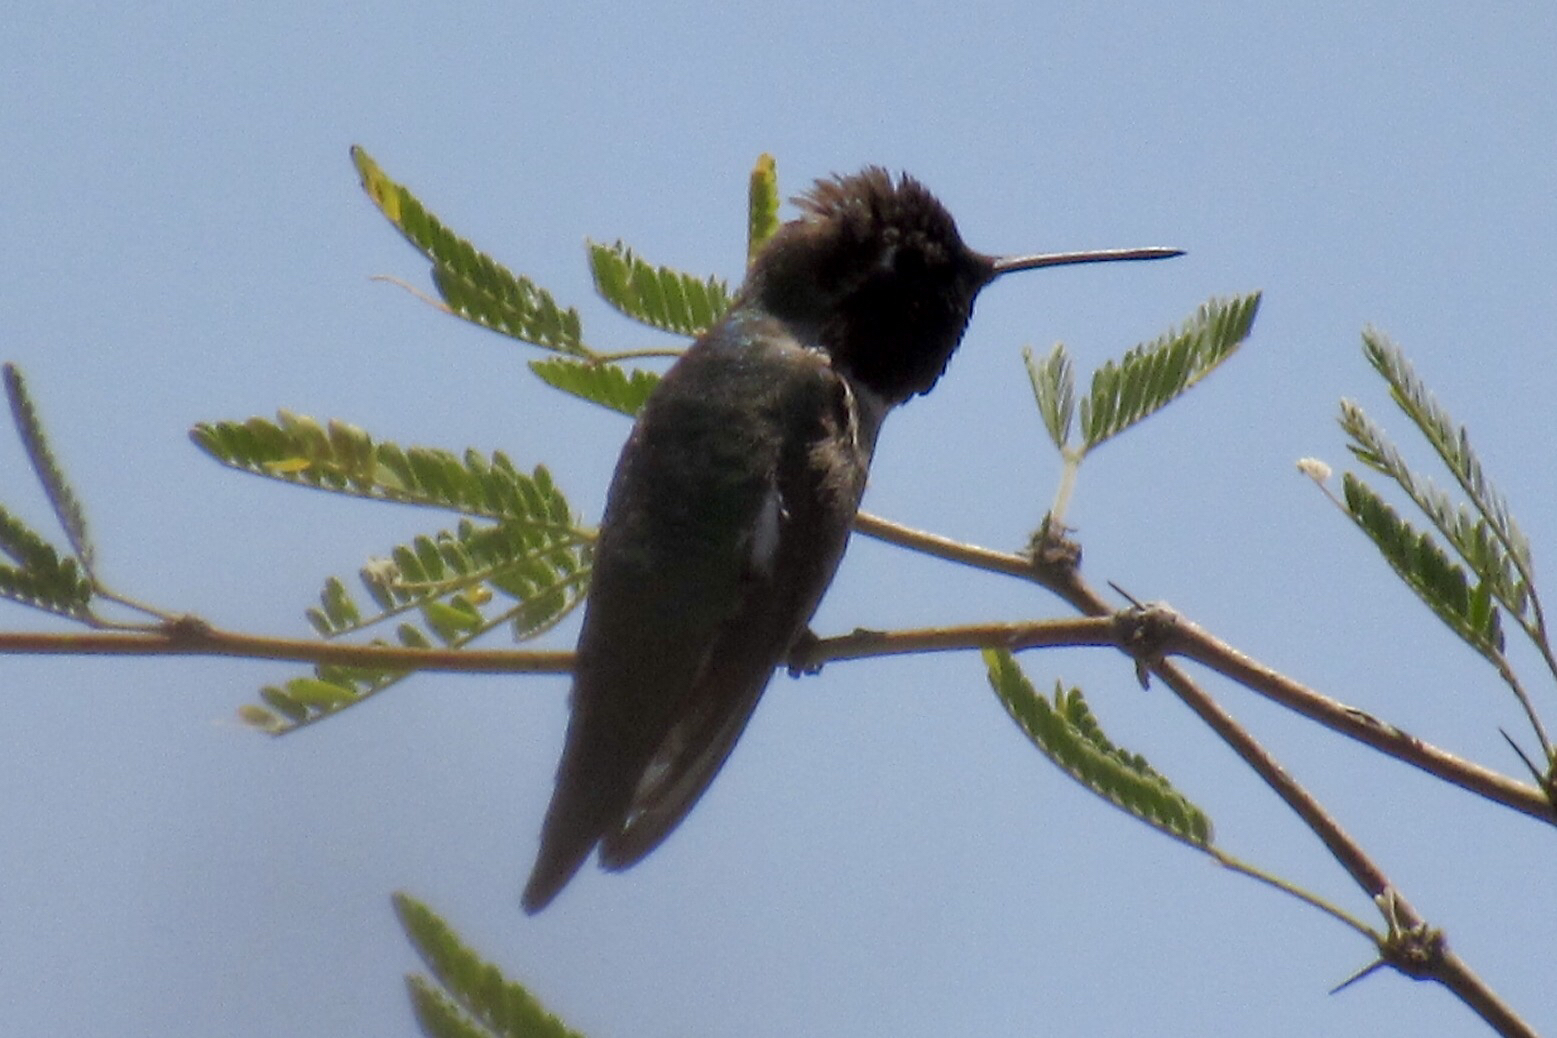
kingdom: Animalia
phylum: Chordata
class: Aves
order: Apodiformes
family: Trochilidae
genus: Calypte
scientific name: Calypte anna
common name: Anna's hummingbird
